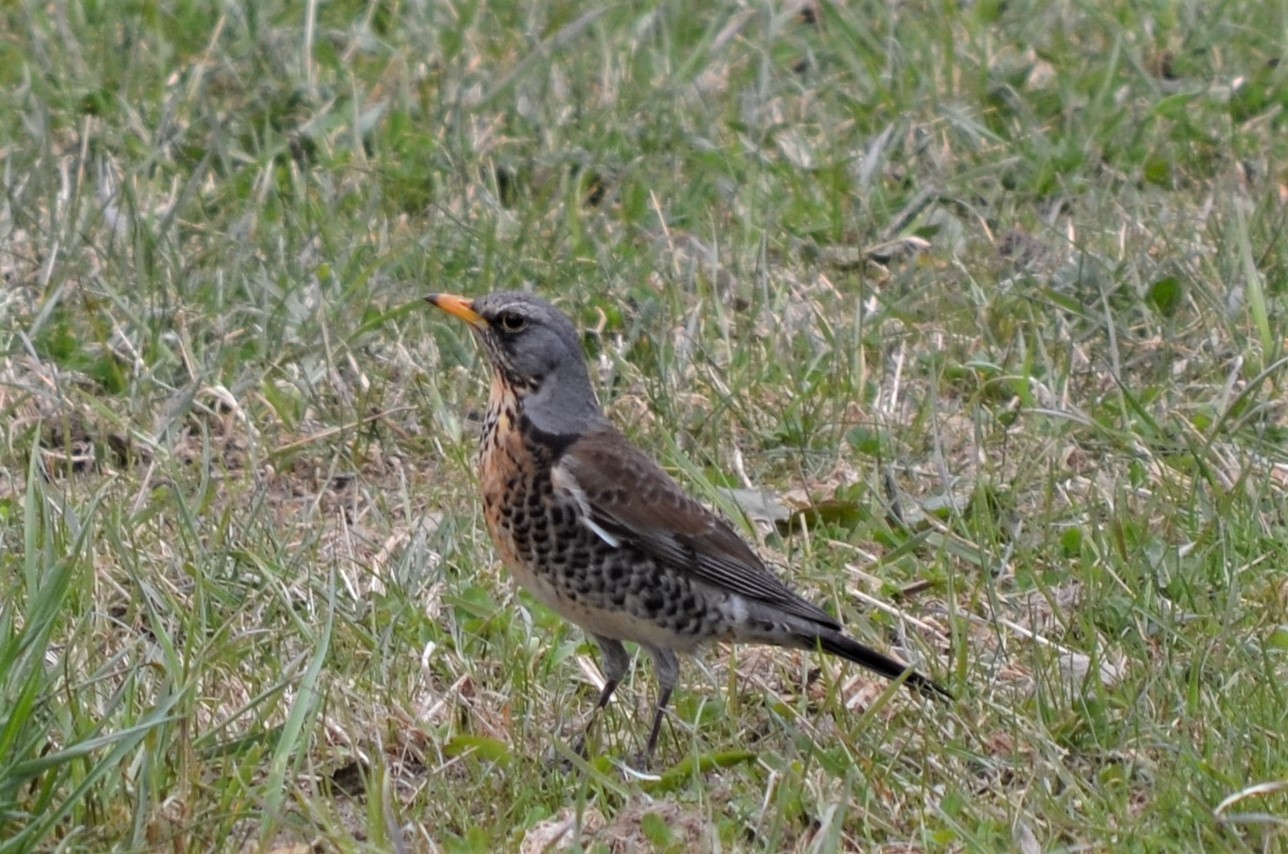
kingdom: Animalia
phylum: Chordata
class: Aves
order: Passeriformes
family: Turdidae
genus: Turdus
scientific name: Turdus pilaris
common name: Fieldfare
